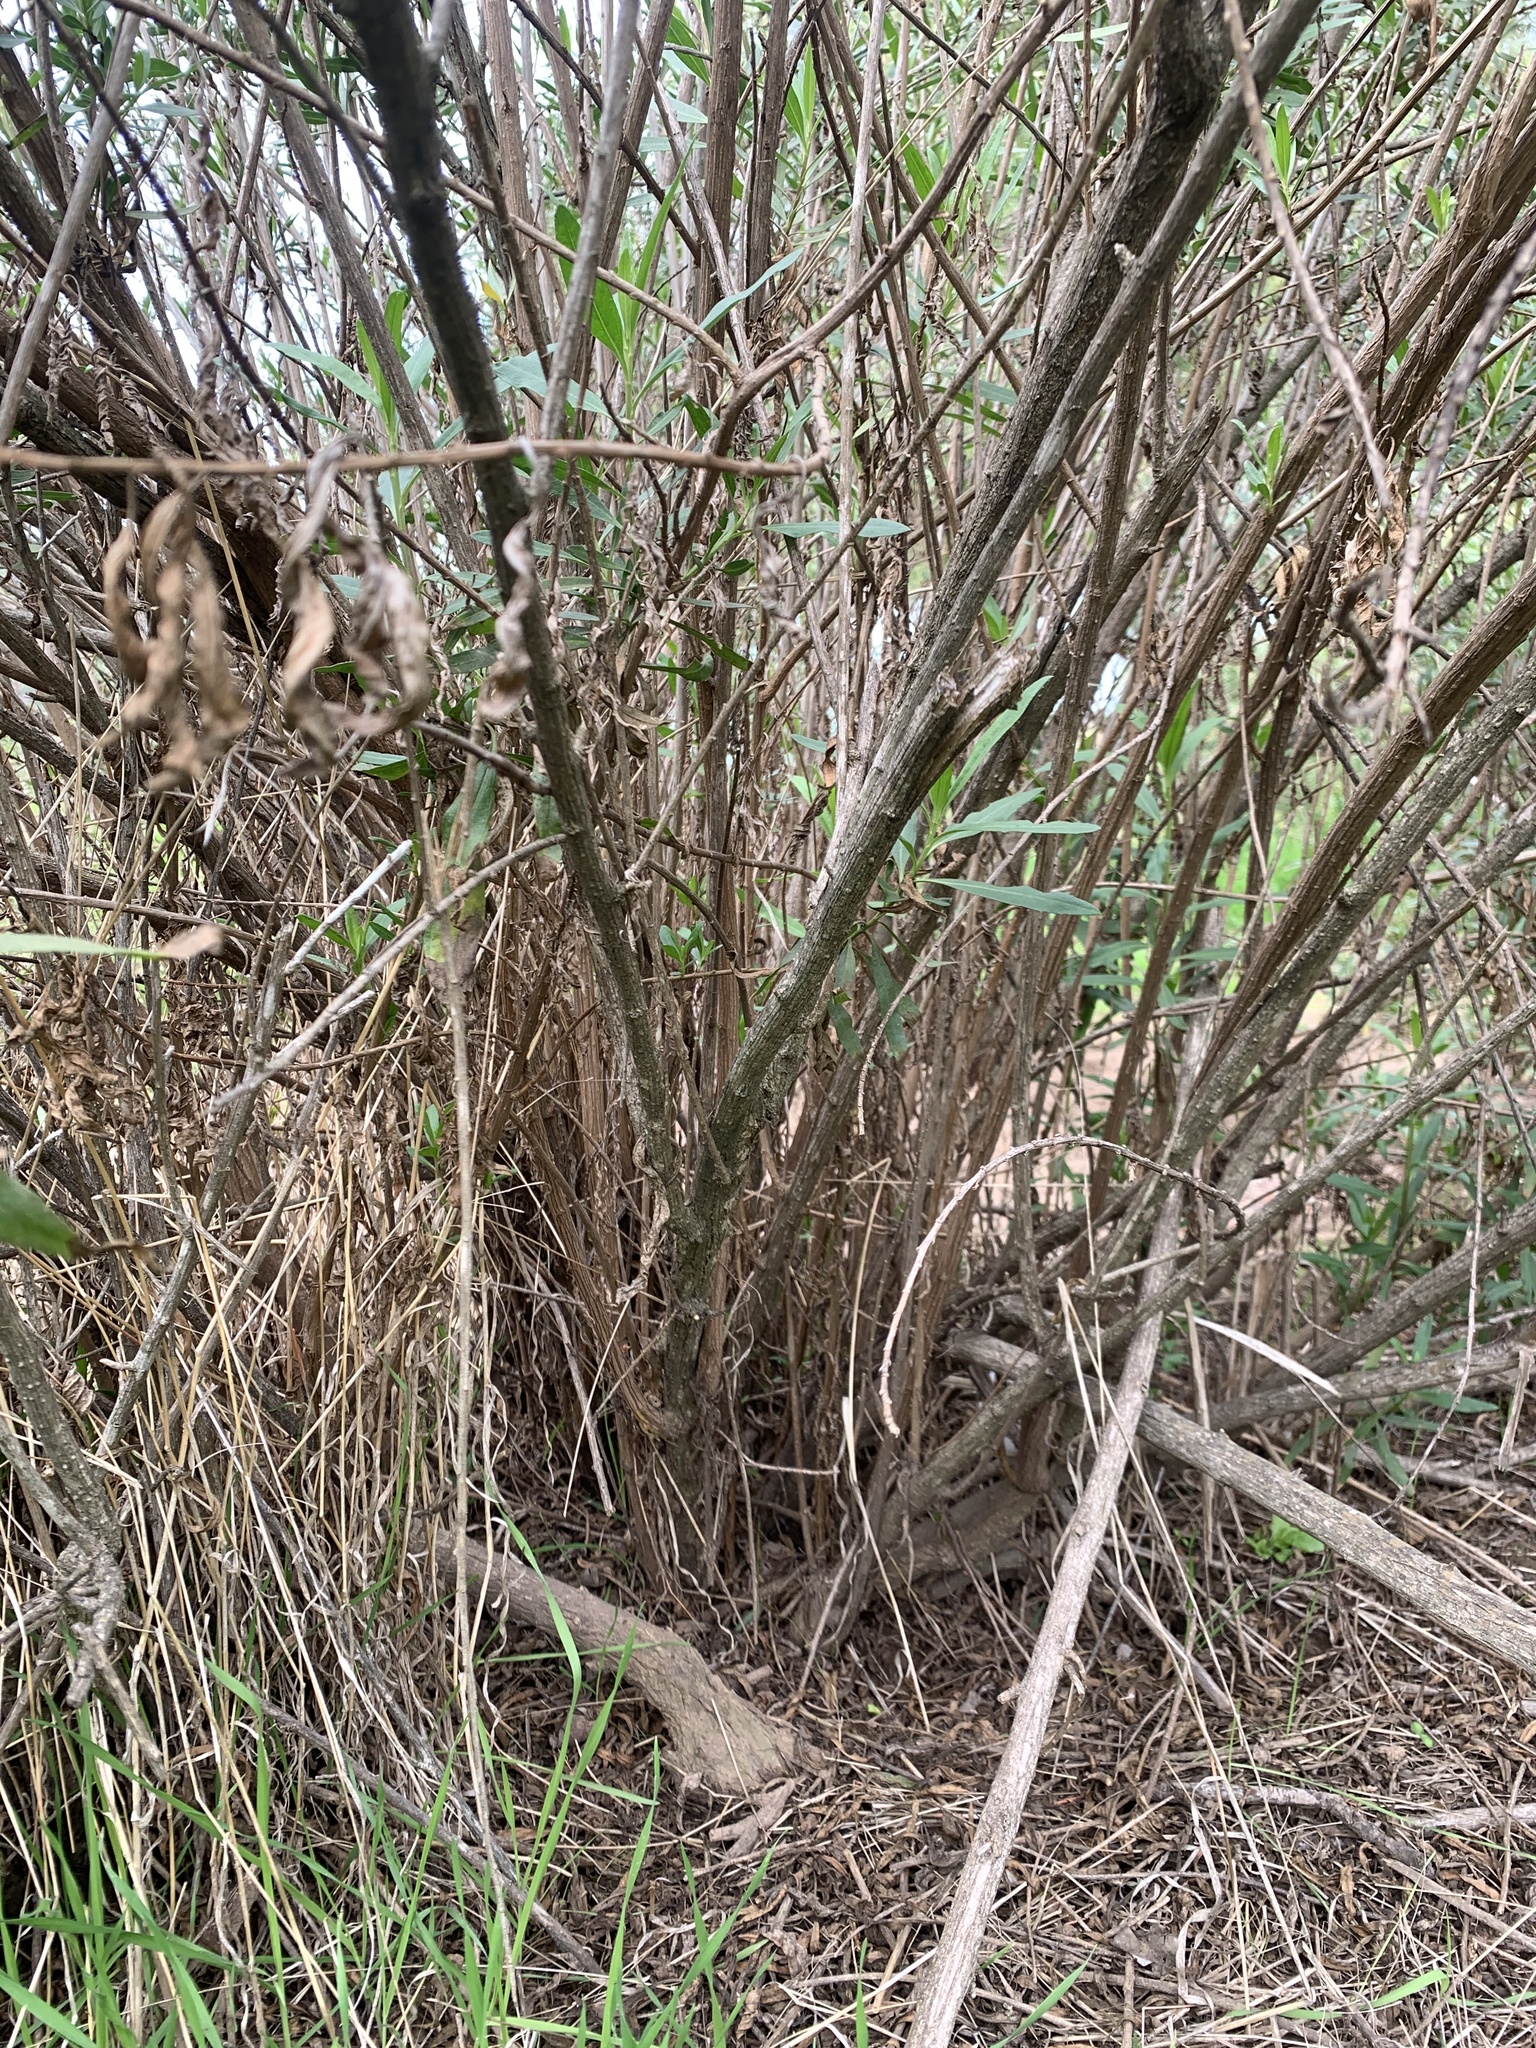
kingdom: Plantae
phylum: Tracheophyta
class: Magnoliopsida
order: Asterales
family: Asteraceae
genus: Baccharis
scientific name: Baccharis salicifolia
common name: Sticky baccharis
